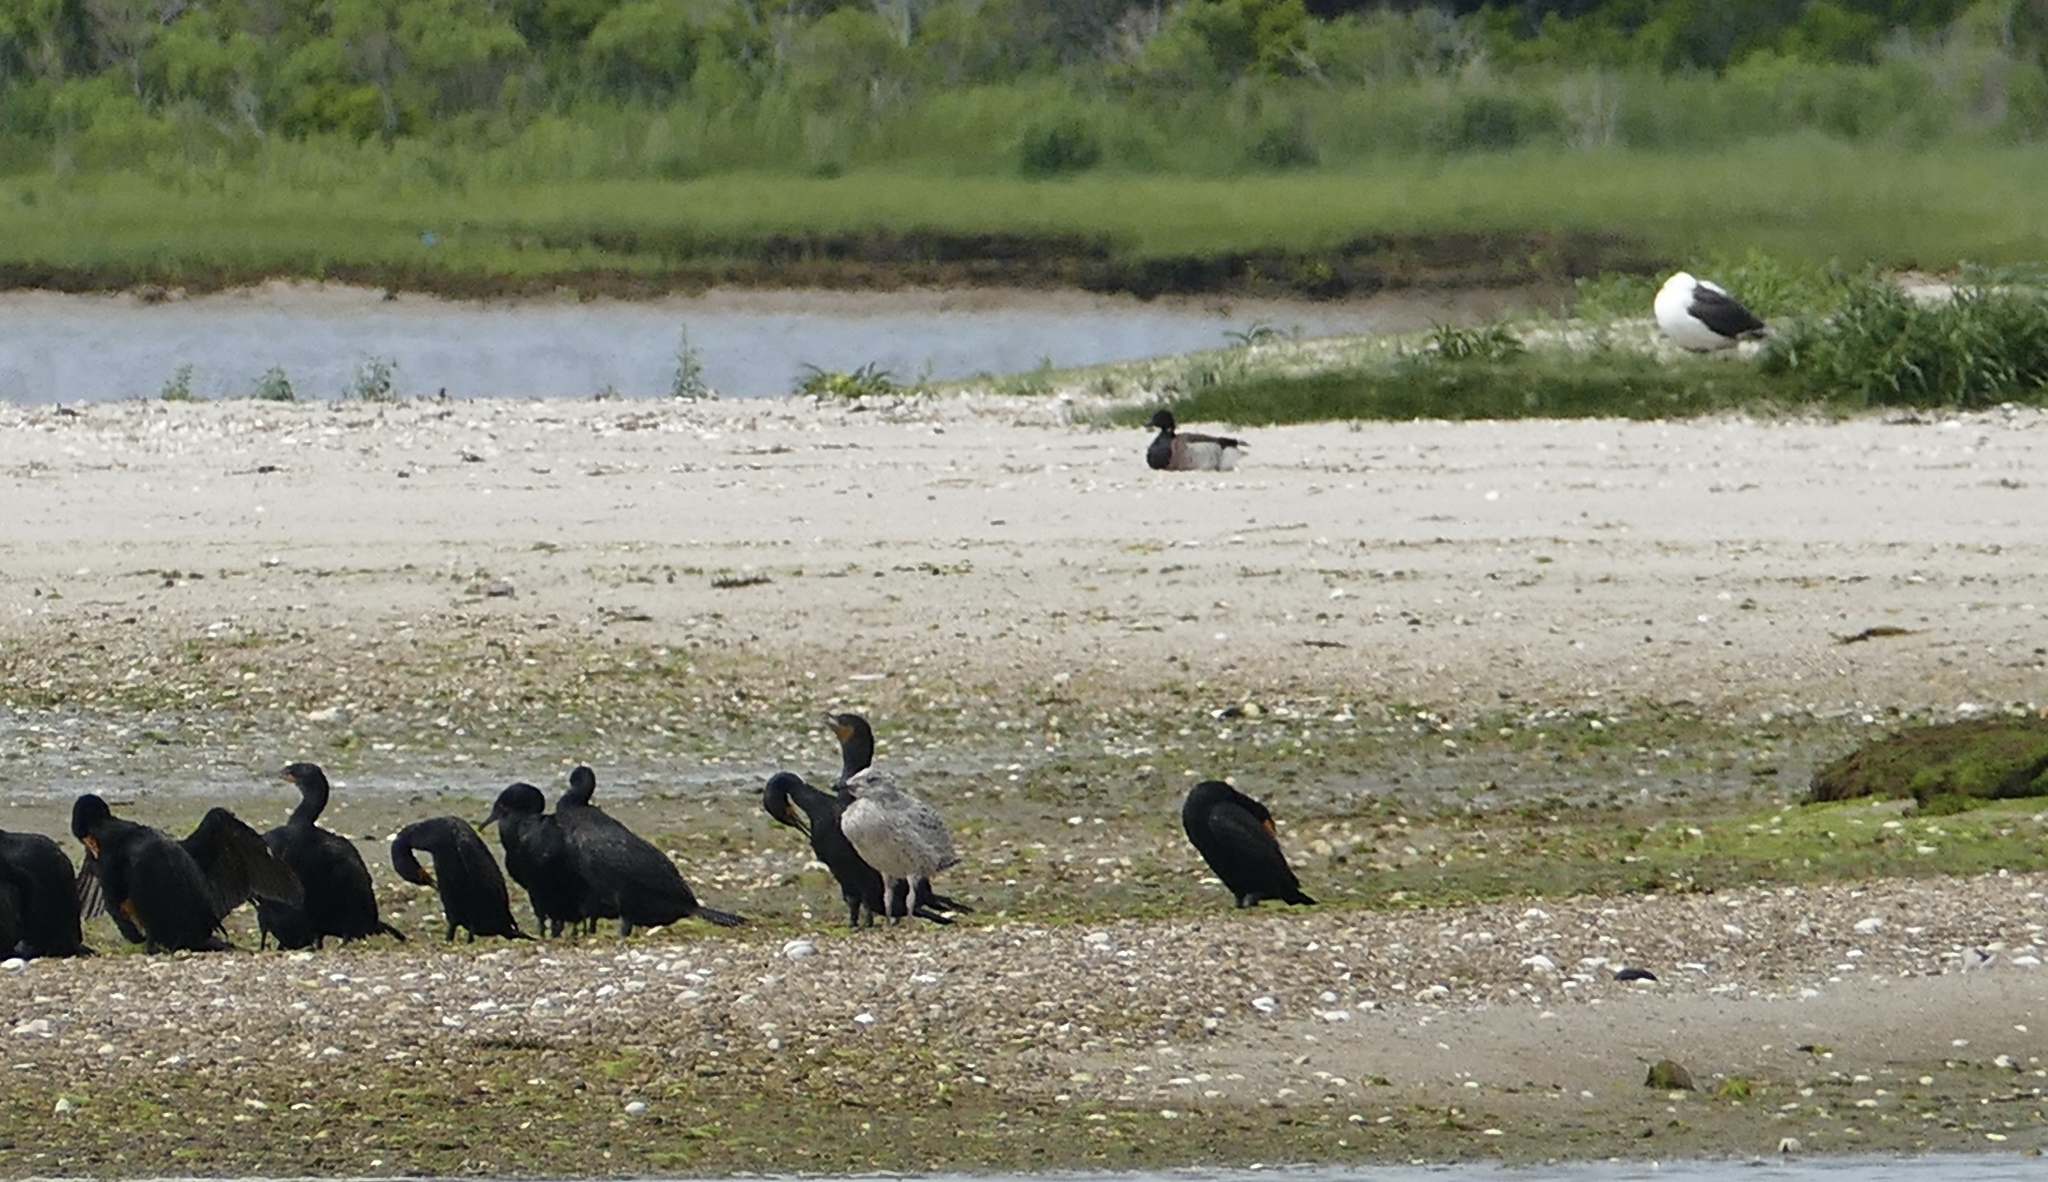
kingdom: Animalia
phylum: Chordata
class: Aves
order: Charadriiformes
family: Laridae
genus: Larus
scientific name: Larus marinus
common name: Great black-backed gull
